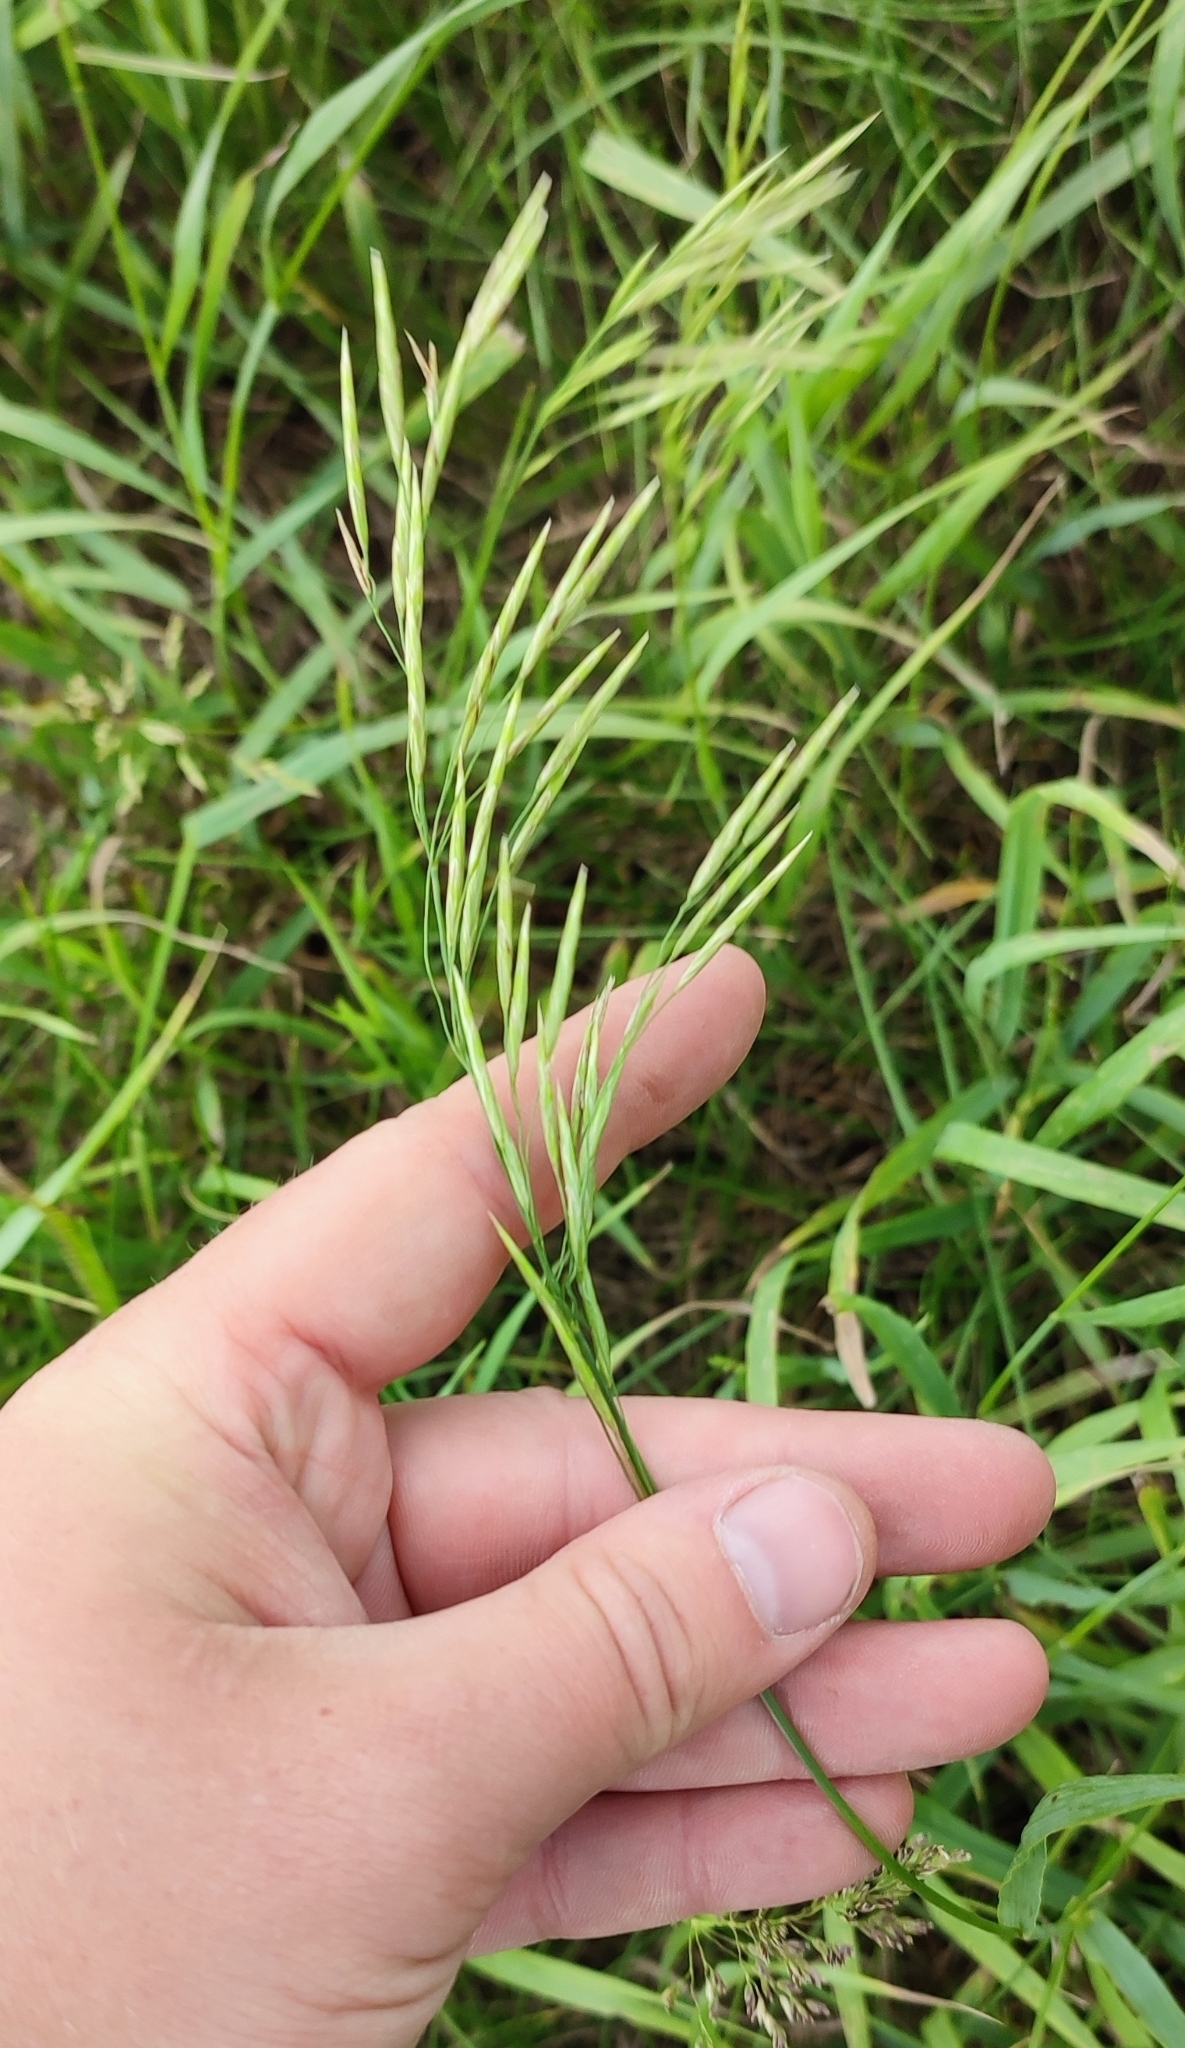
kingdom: Plantae
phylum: Tracheophyta
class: Liliopsida
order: Poales
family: Poaceae
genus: Bromus
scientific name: Bromus inermis
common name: Smooth brome
